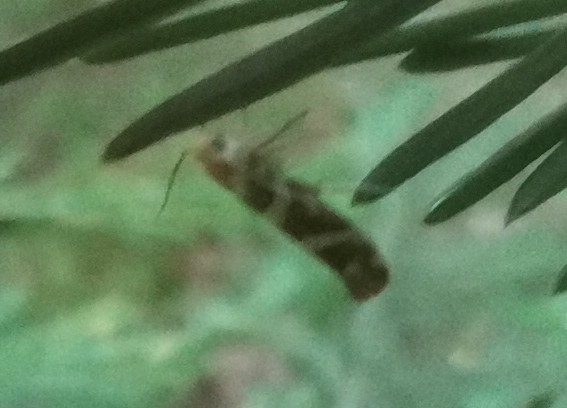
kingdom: Animalia
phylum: Arthropoda
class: Insecta
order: Lepidoptera
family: Argyresthiidae
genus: Argyresthia
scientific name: Argyresthia goedartella
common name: Golden argent
